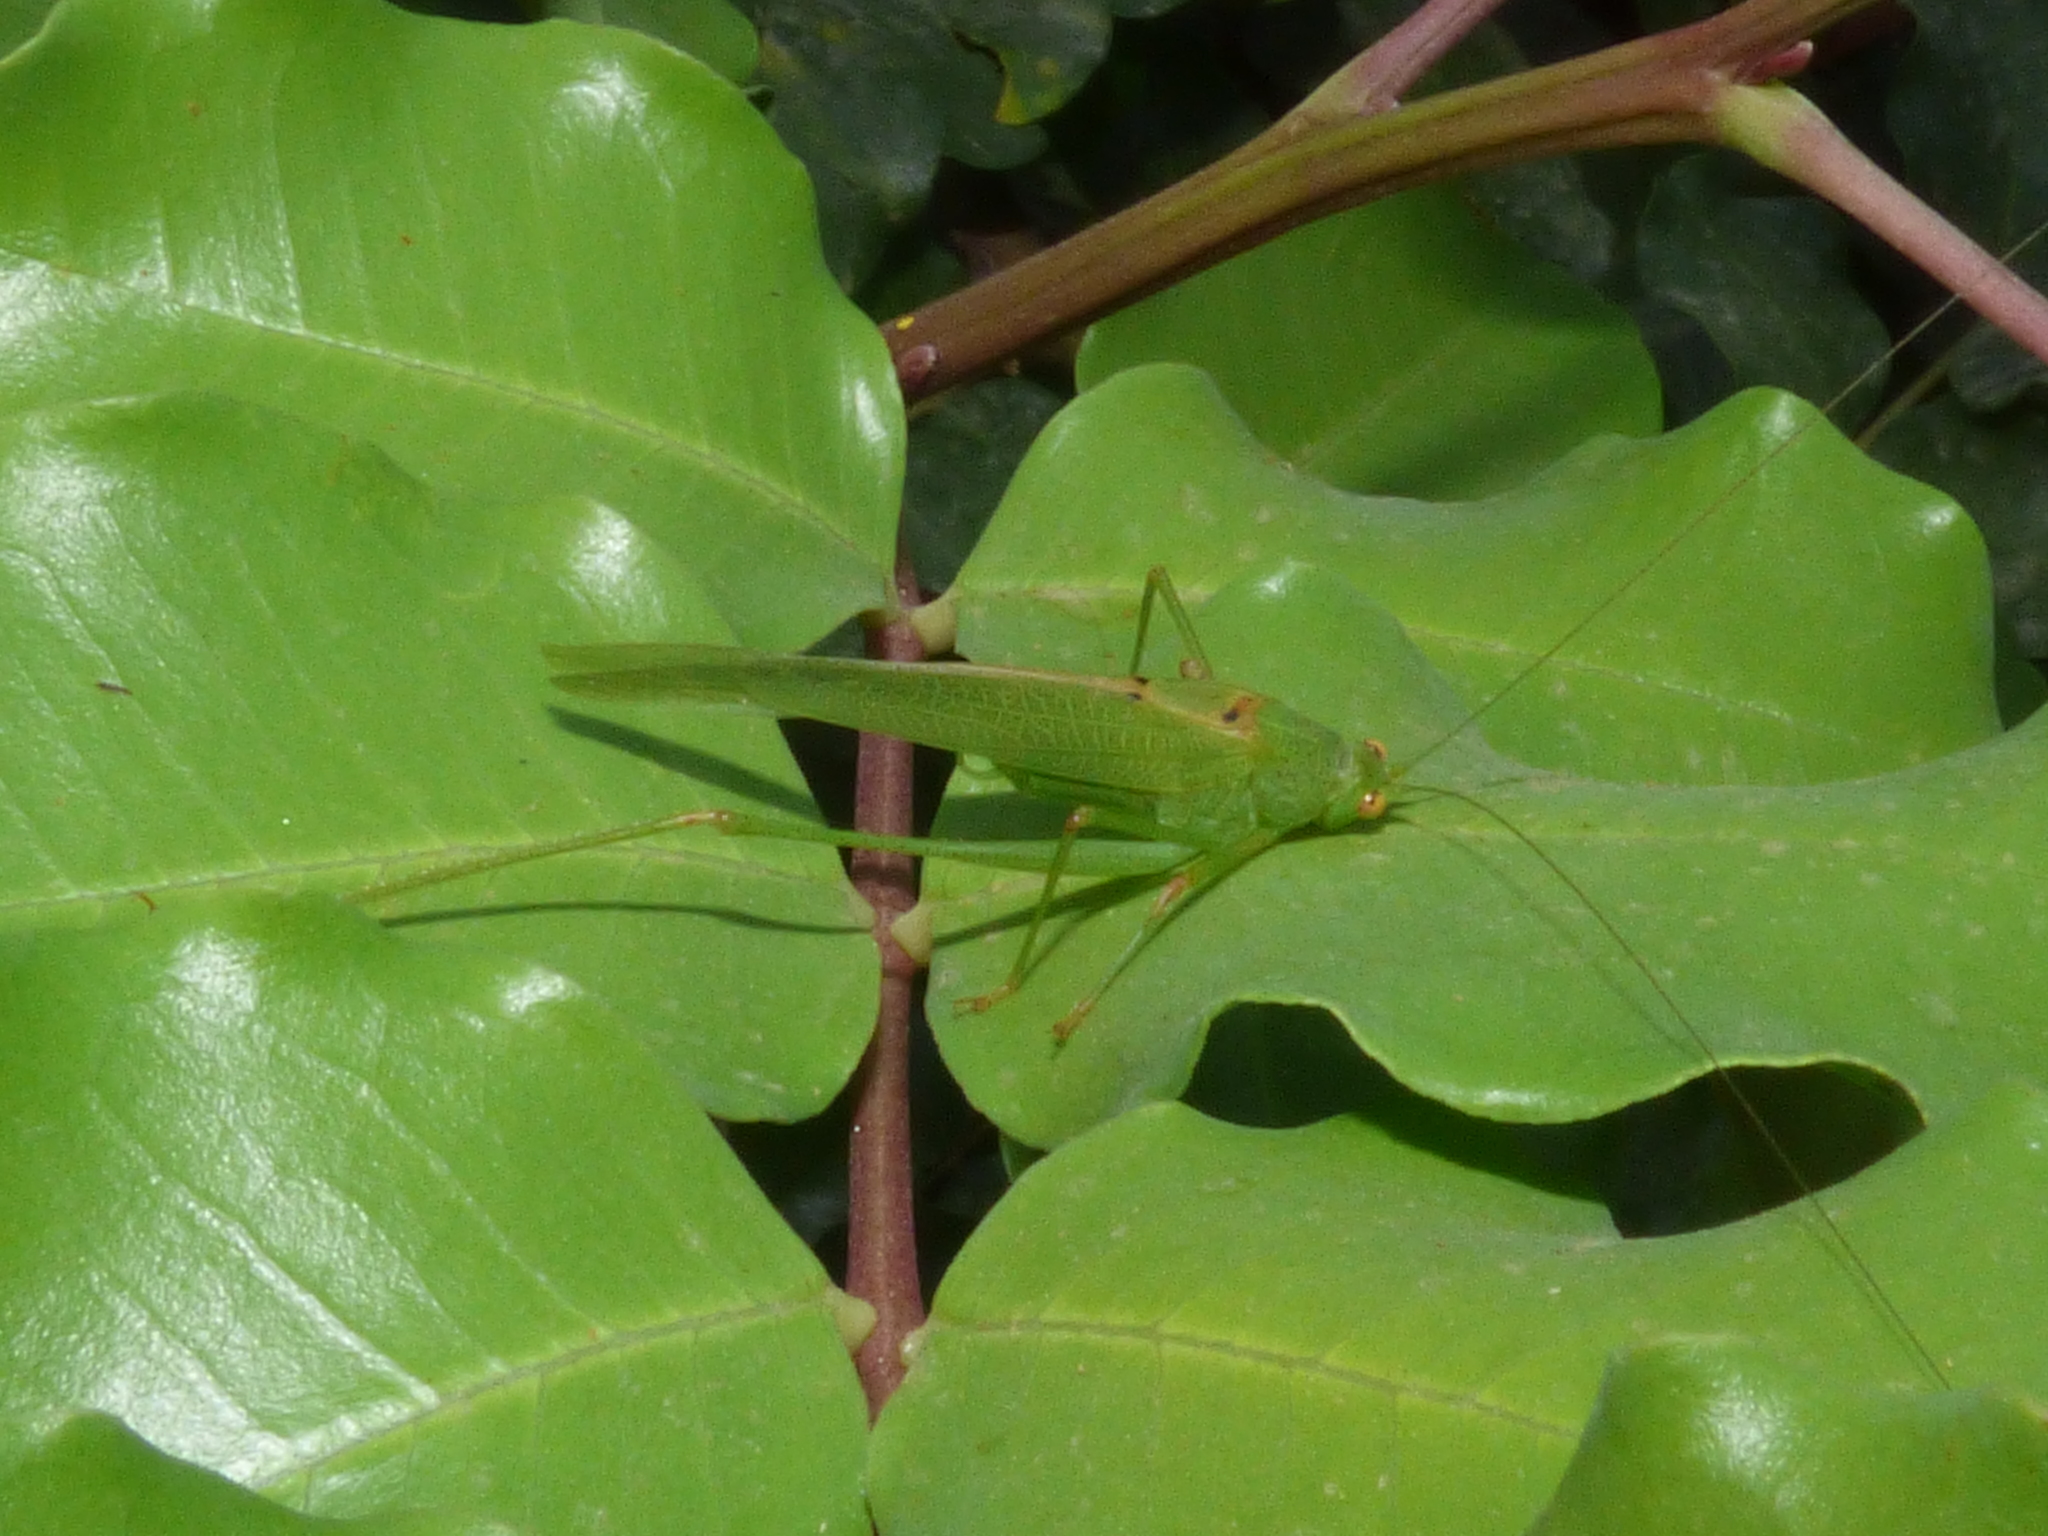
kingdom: Animalia
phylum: Arthropoda
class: Insecta
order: Orthoptera
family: Tettigoniidae
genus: Phaneroptera
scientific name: Phaneroptera nana
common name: Southern sickle bush-cricket
